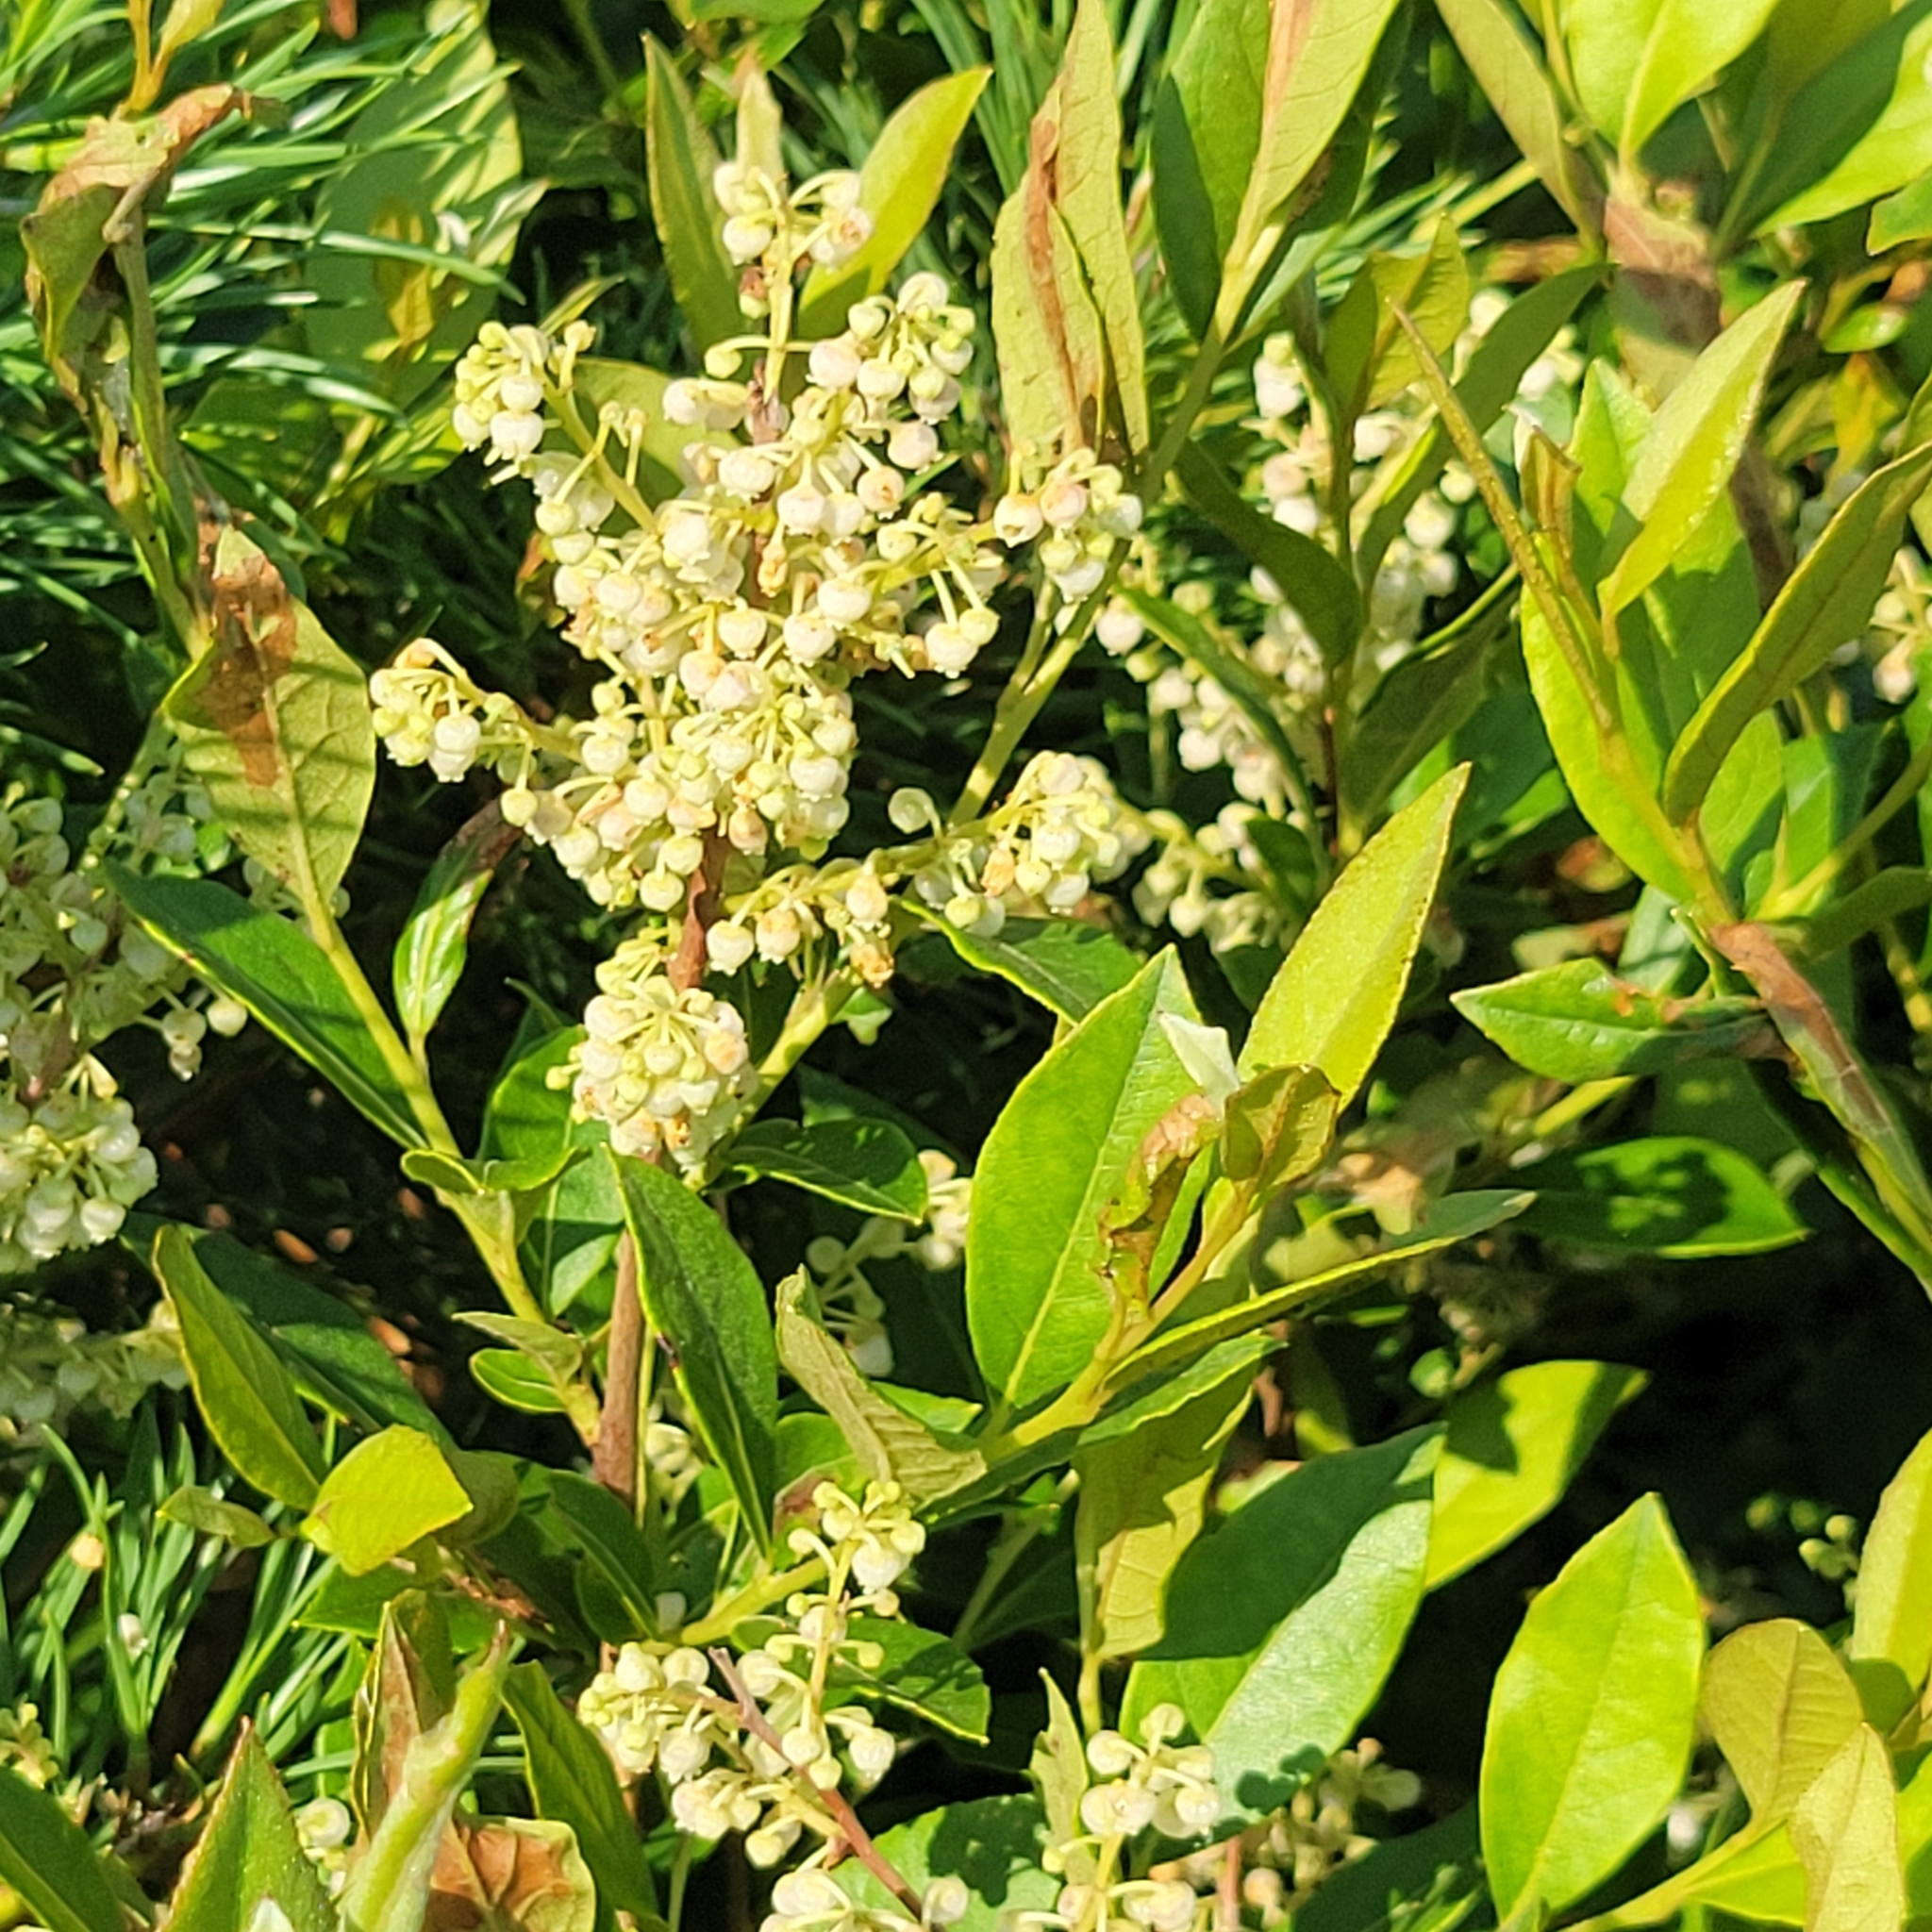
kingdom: Plantae
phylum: Tracheophyta
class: Magnoliopsida
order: Ericales
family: Ericaceae
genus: Lyonia
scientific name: Lyonia ligustrina
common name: Maleberry
